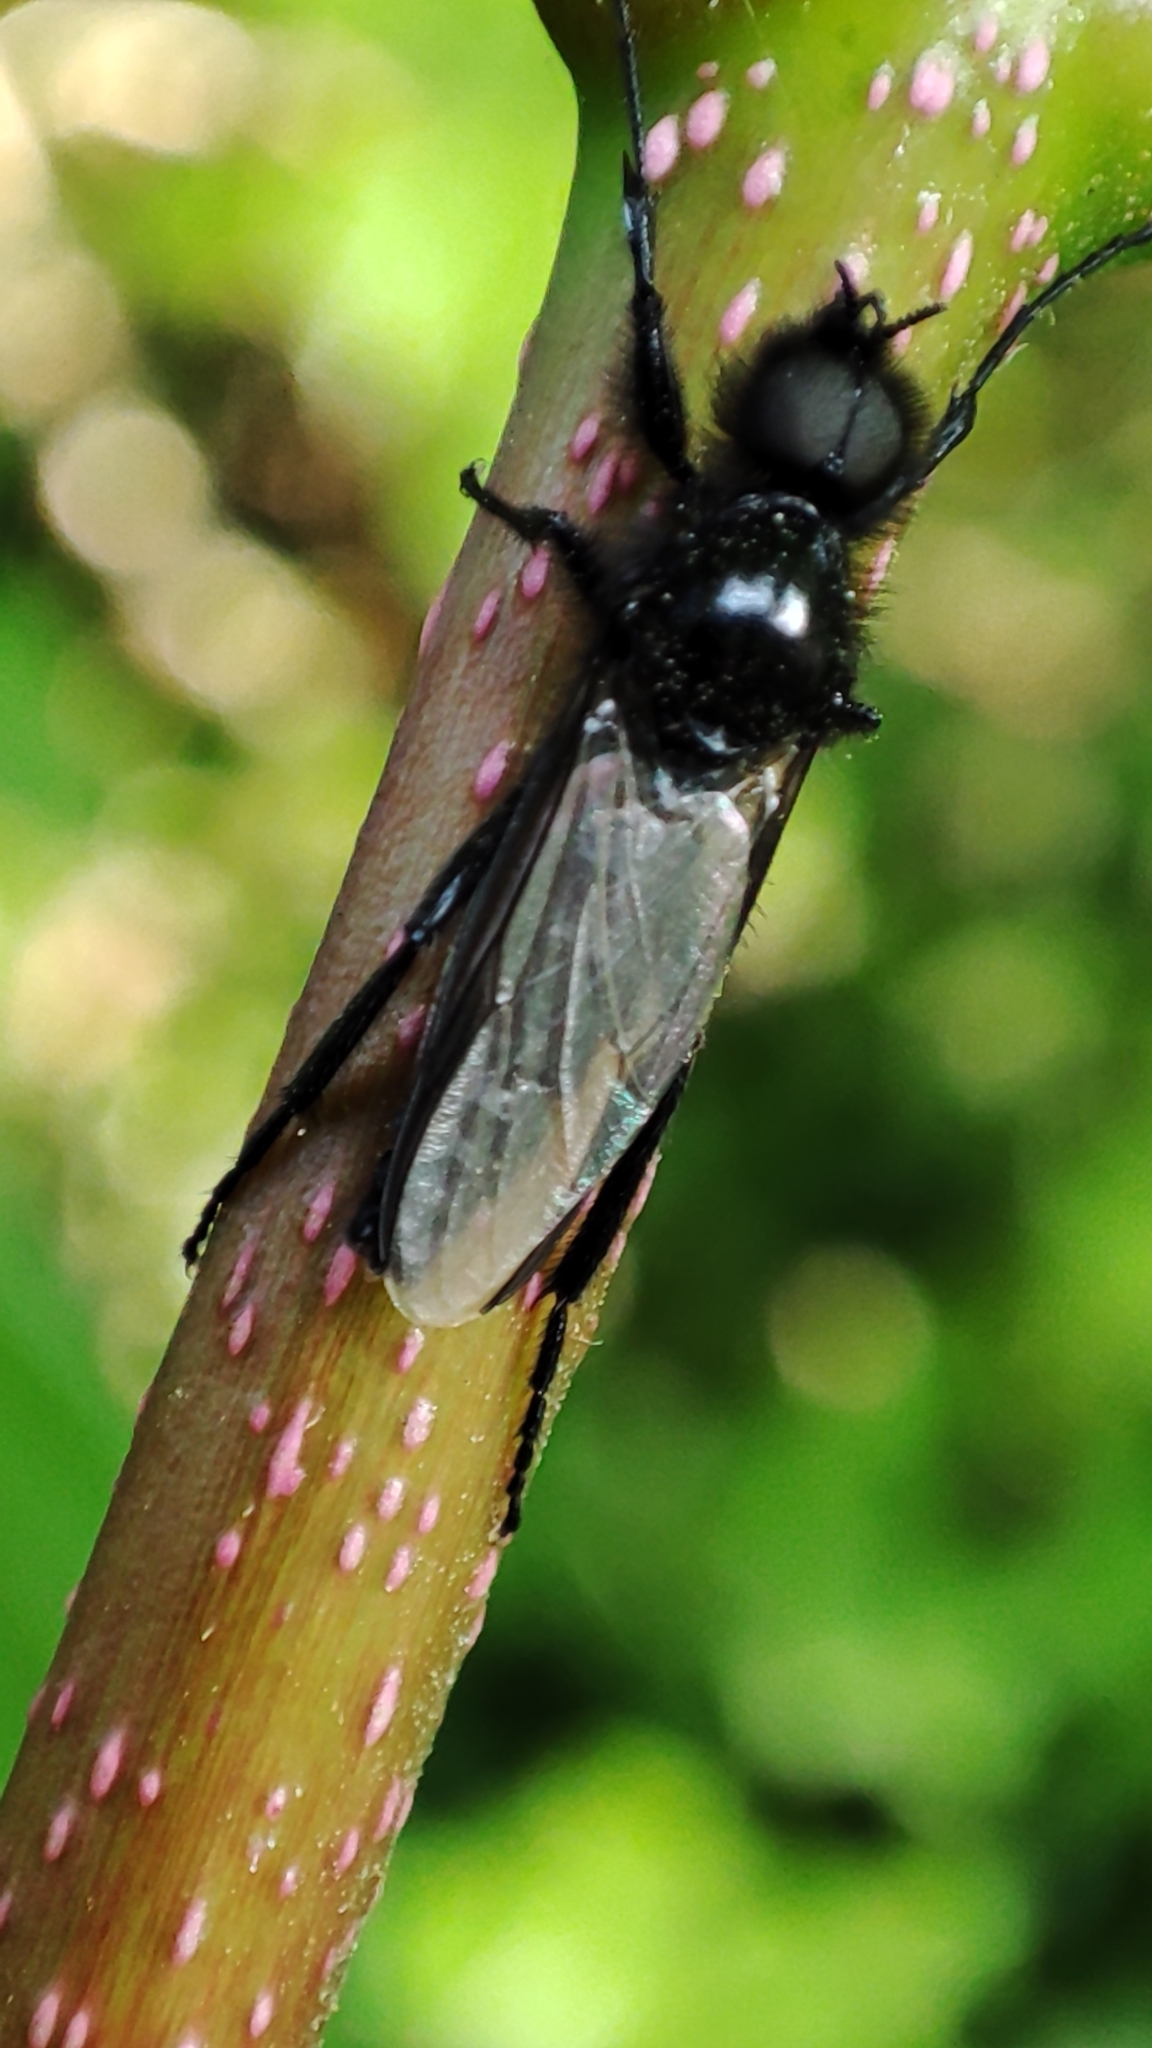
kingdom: Animalia
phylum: Arthropoda
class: Insecta
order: Diptera
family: Bibionidae
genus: Bibio
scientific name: Bibio marci
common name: St marks fly
